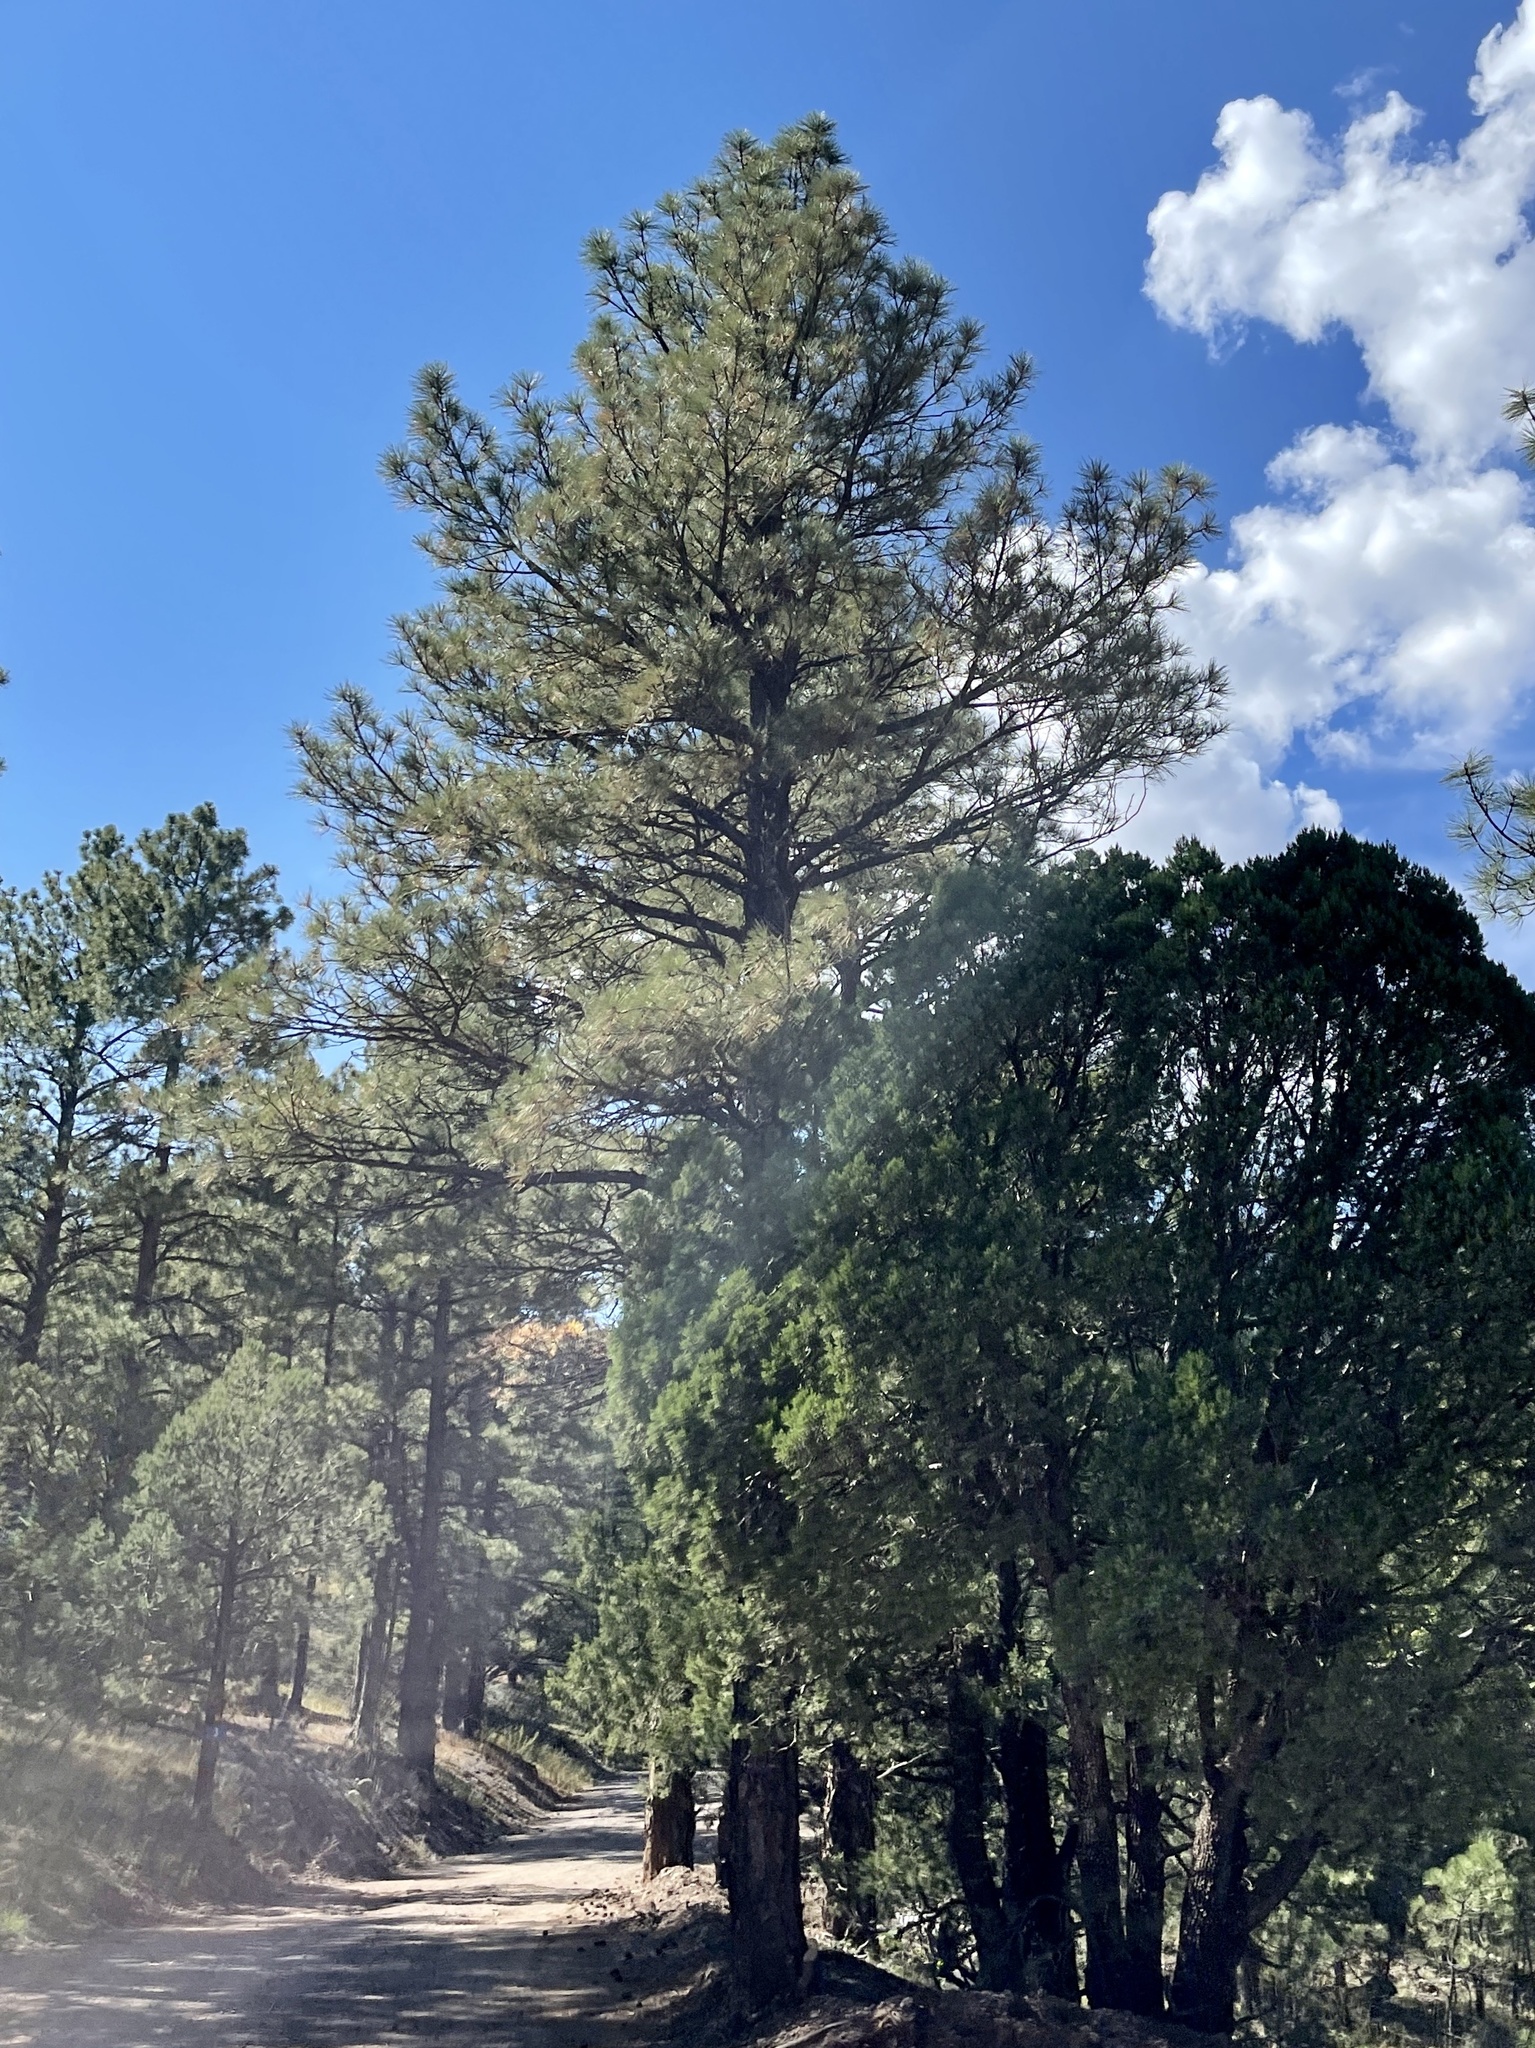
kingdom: Plantae
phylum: Tracheophyta
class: Pinopsida
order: Pinales
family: Pinaceae
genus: Pinus
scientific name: Pinus ponderosa
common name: Western yellow-pine
